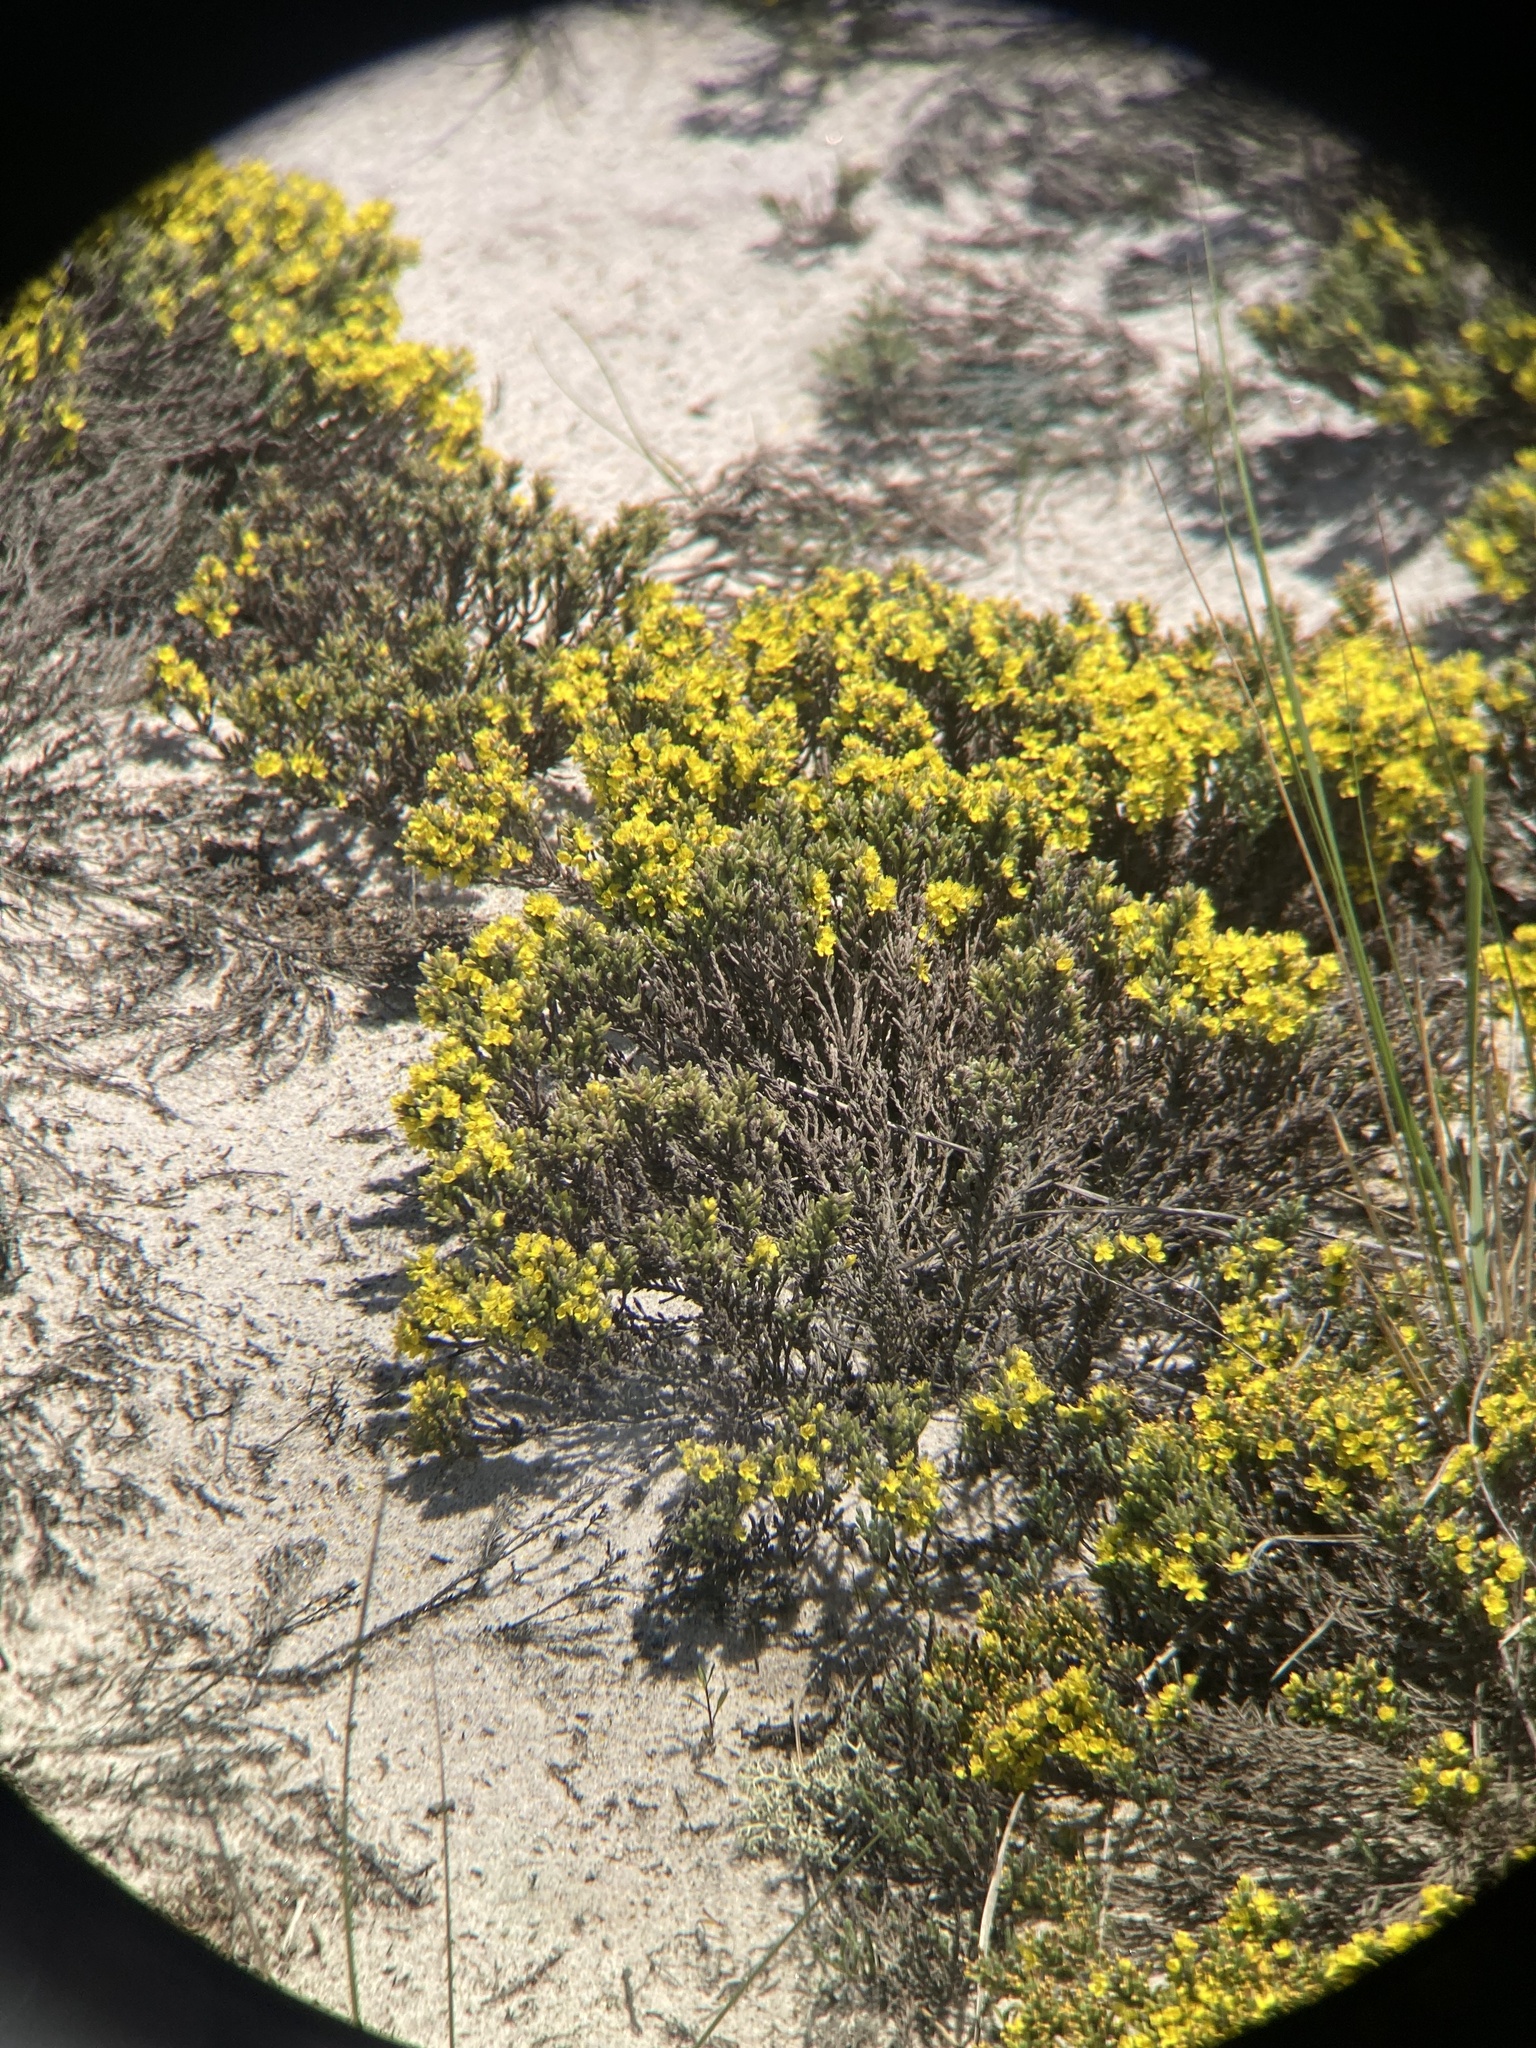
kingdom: Plantae
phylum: Tracheophyta
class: Magnoliopsida
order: Malvales
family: Cistaceae
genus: Hudsonia
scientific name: Hudsonia tomentosa
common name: Beach-heath
